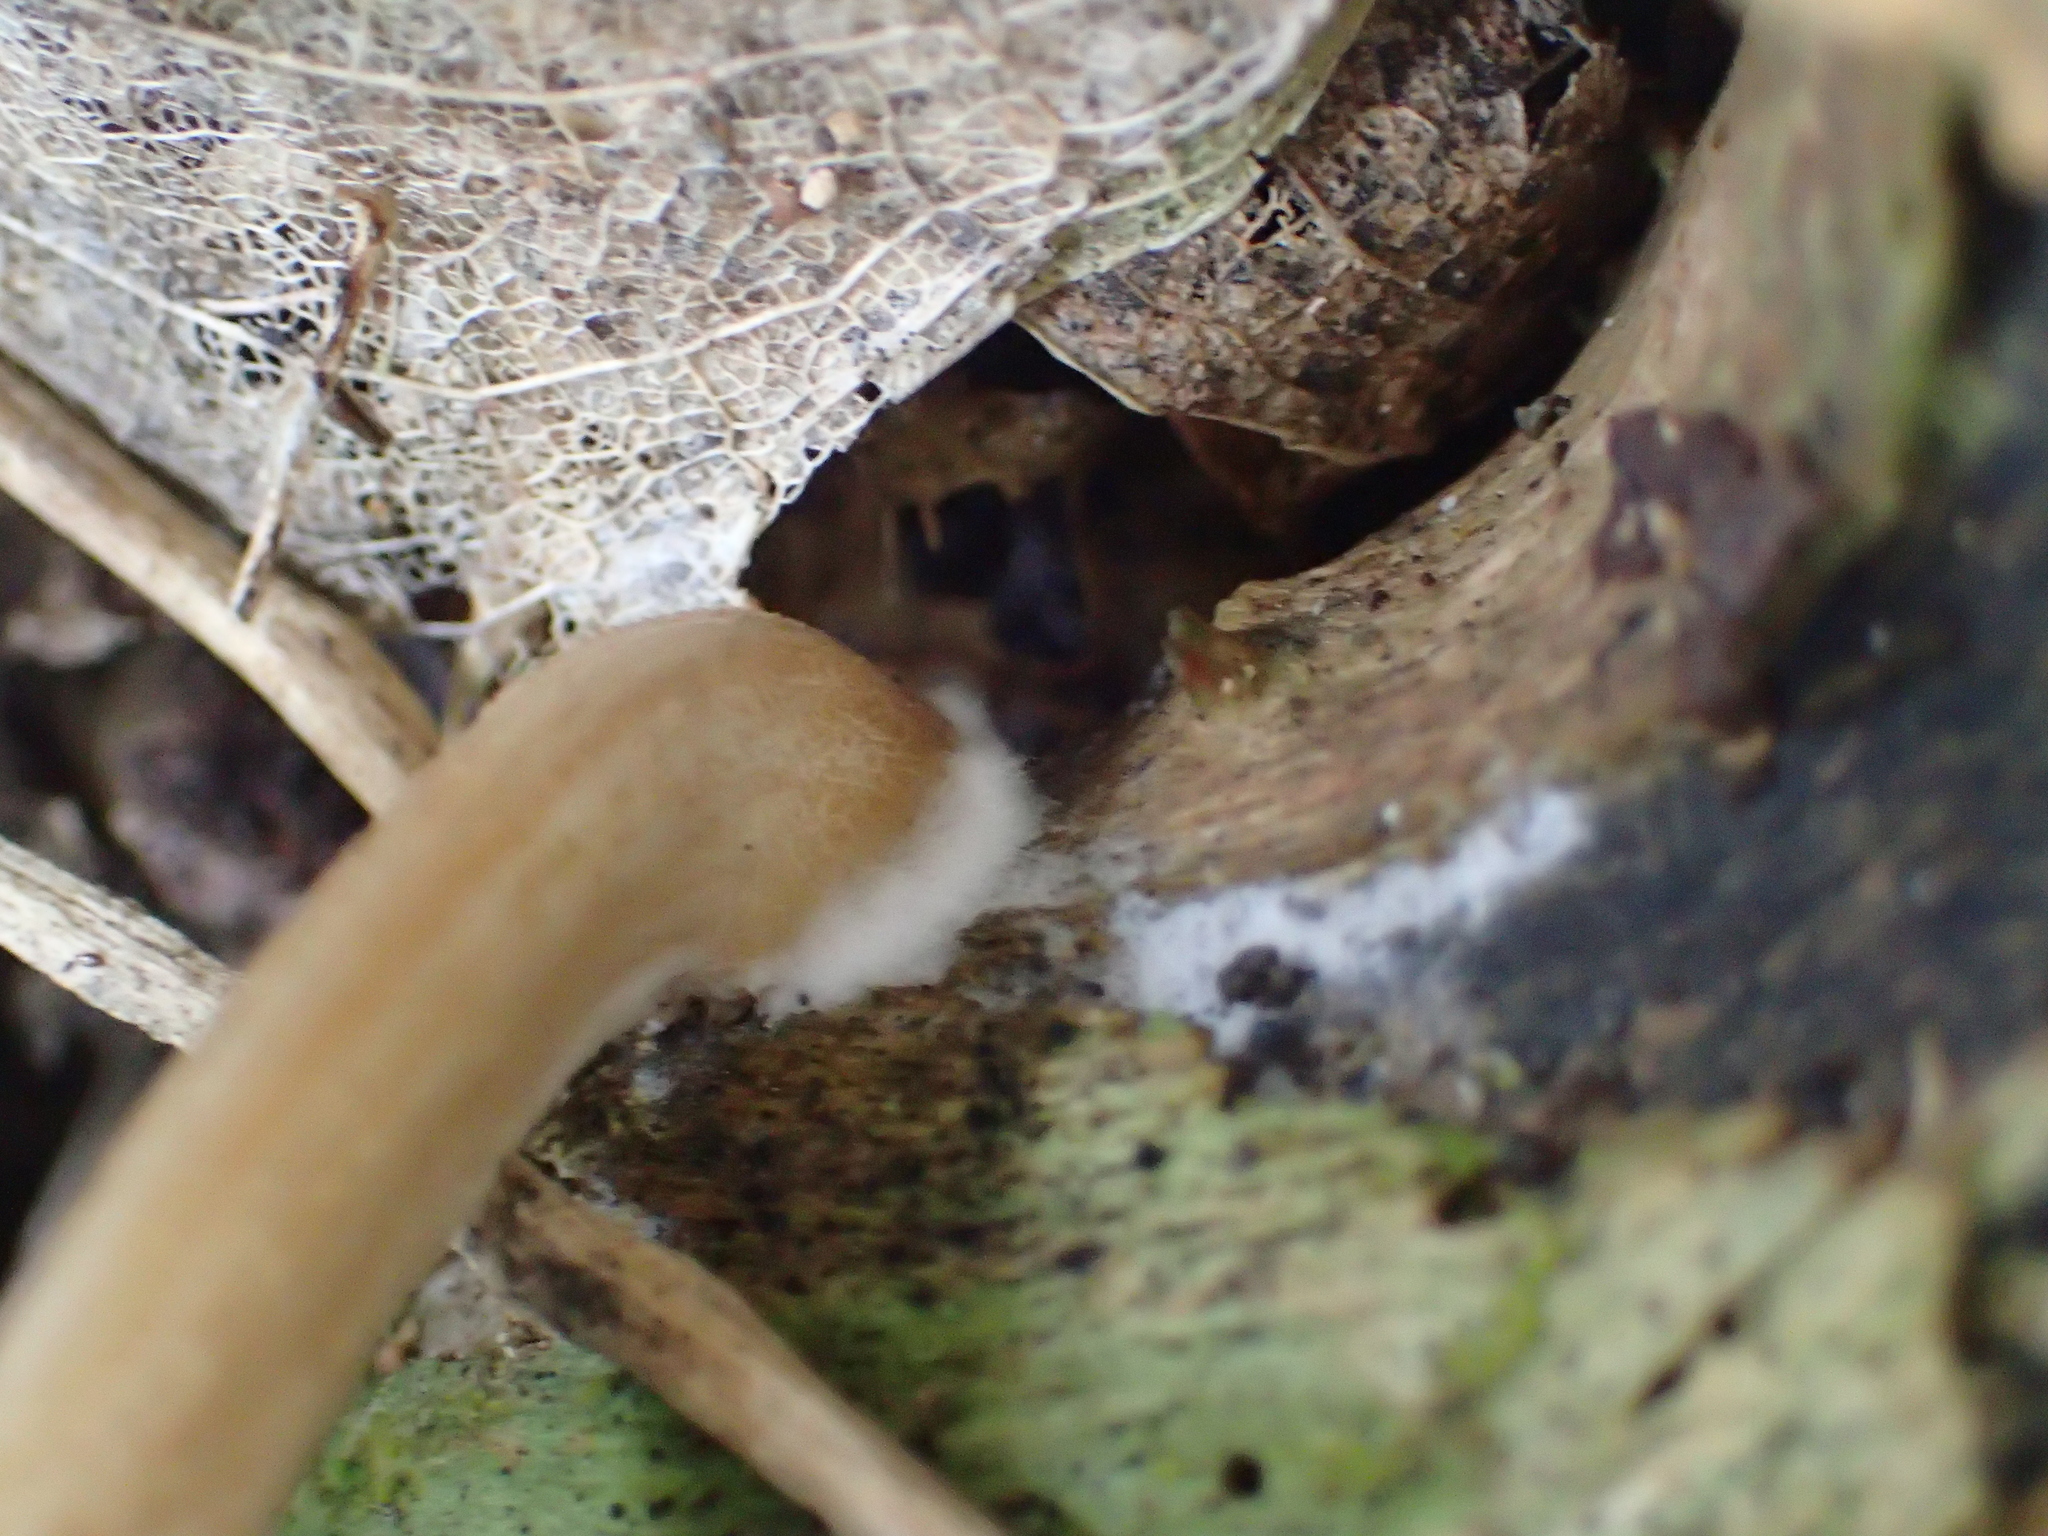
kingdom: Fungi
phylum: Basidiomycota
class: Agaricomycetes
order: Agaricales
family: Pluteaceae
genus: Pluteus
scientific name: Pluteus
